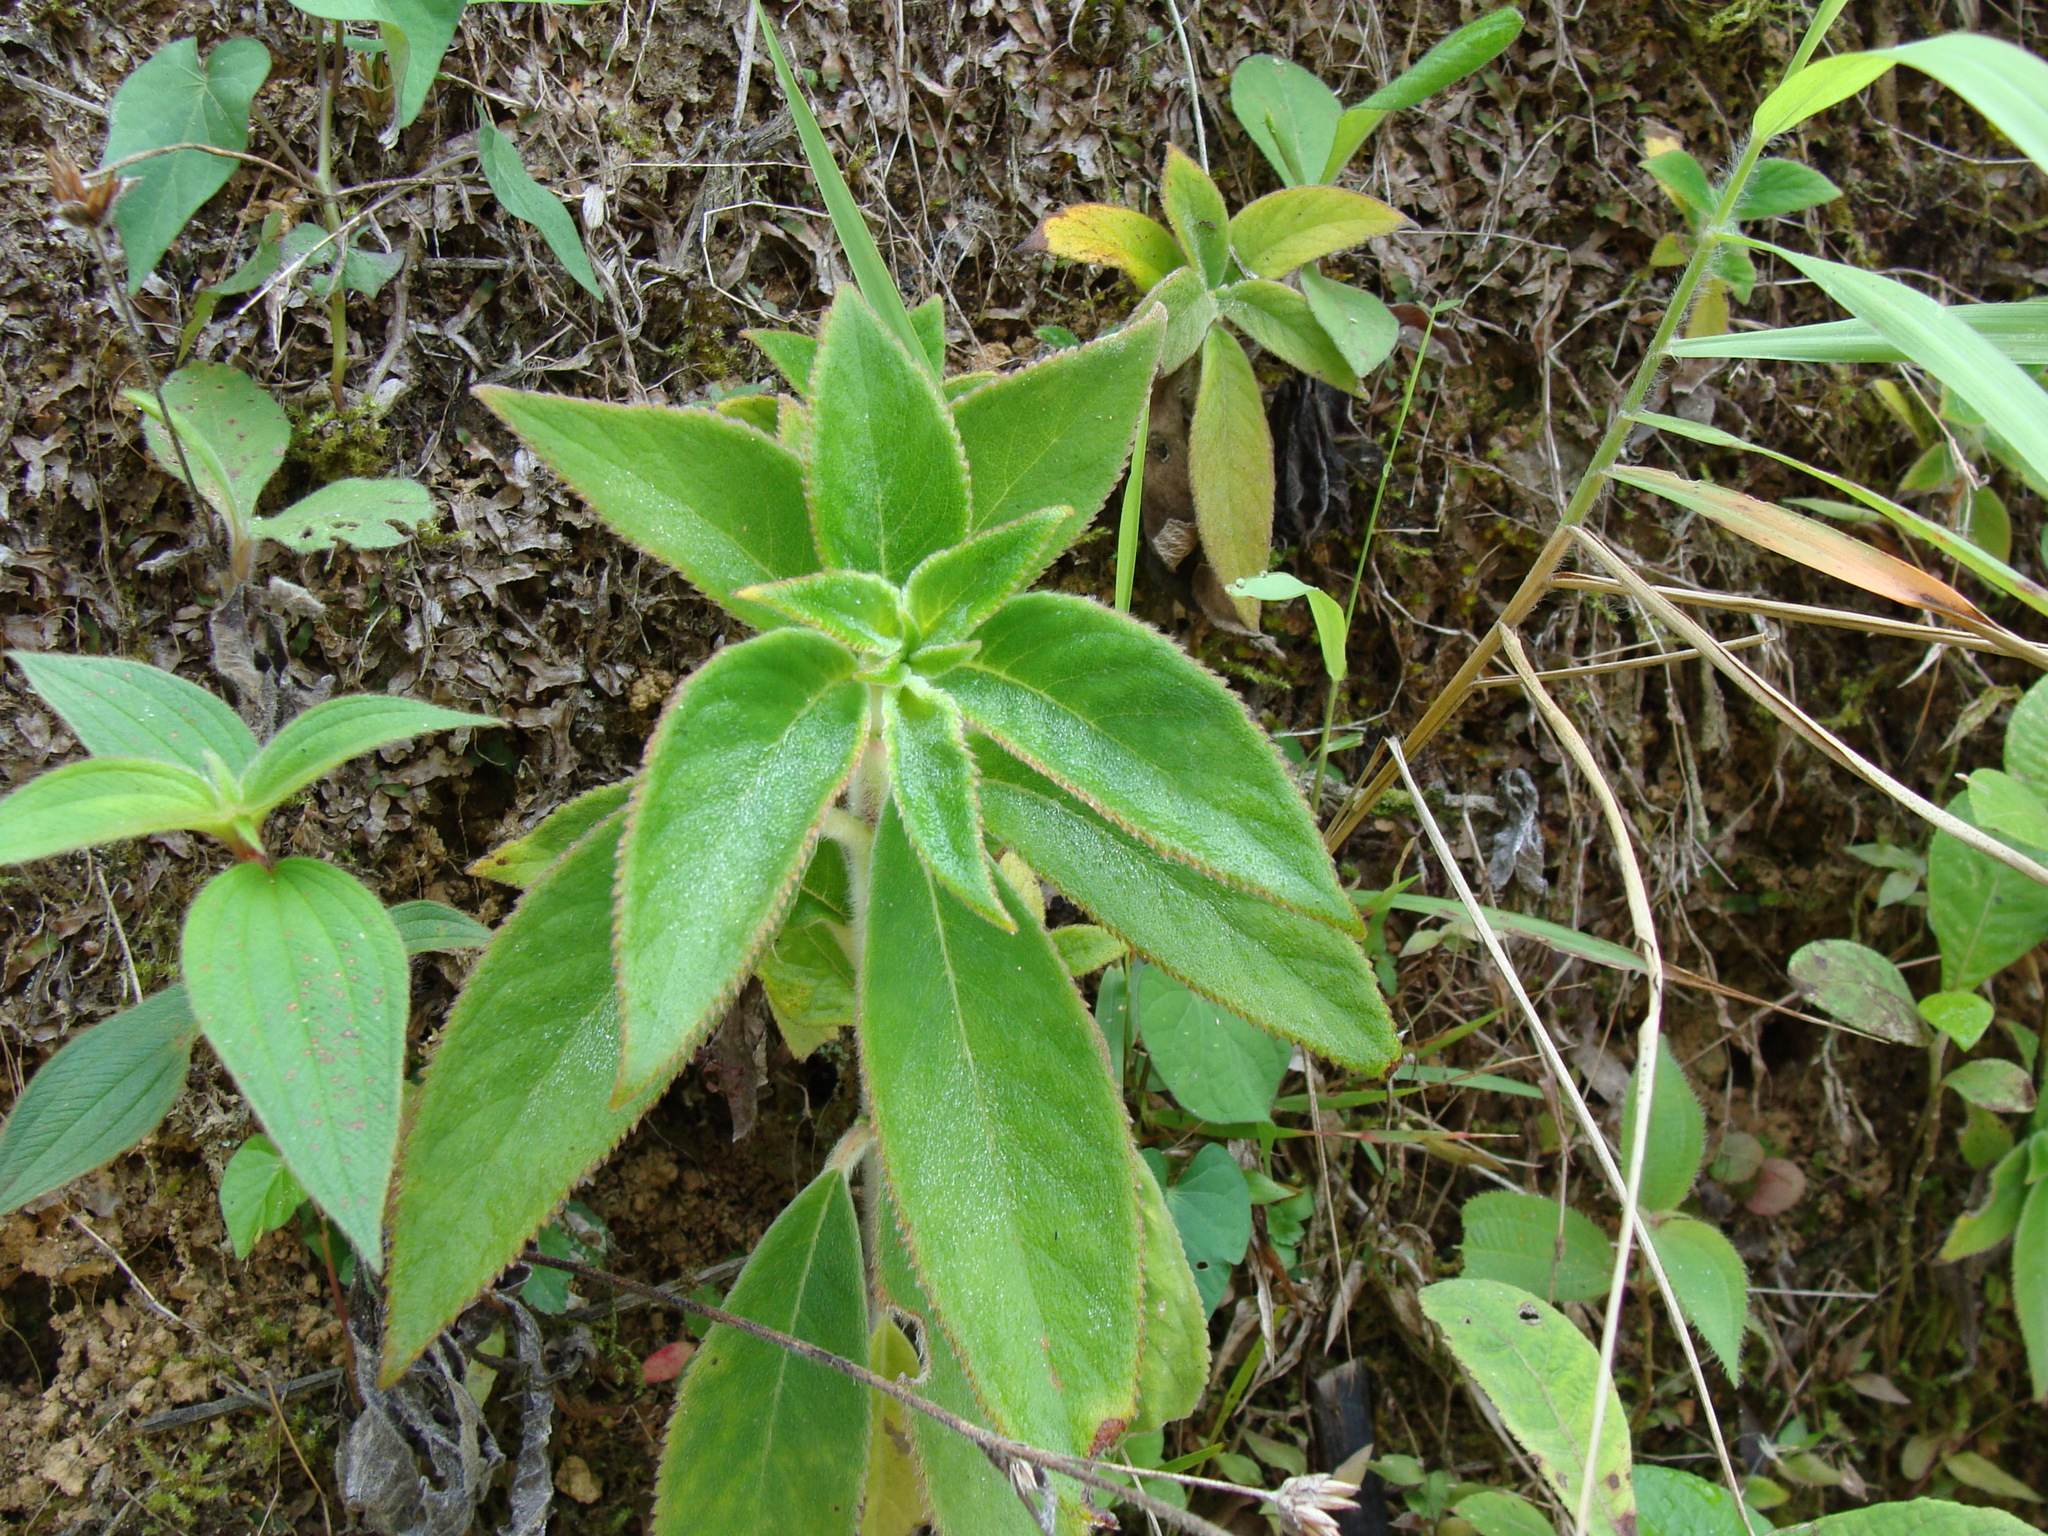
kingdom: Plantae
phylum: Tracheophyta
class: Magnoliopsida
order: Lamiales
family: Gesneriaceae
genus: Kohleria
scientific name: Kohleria spicata
